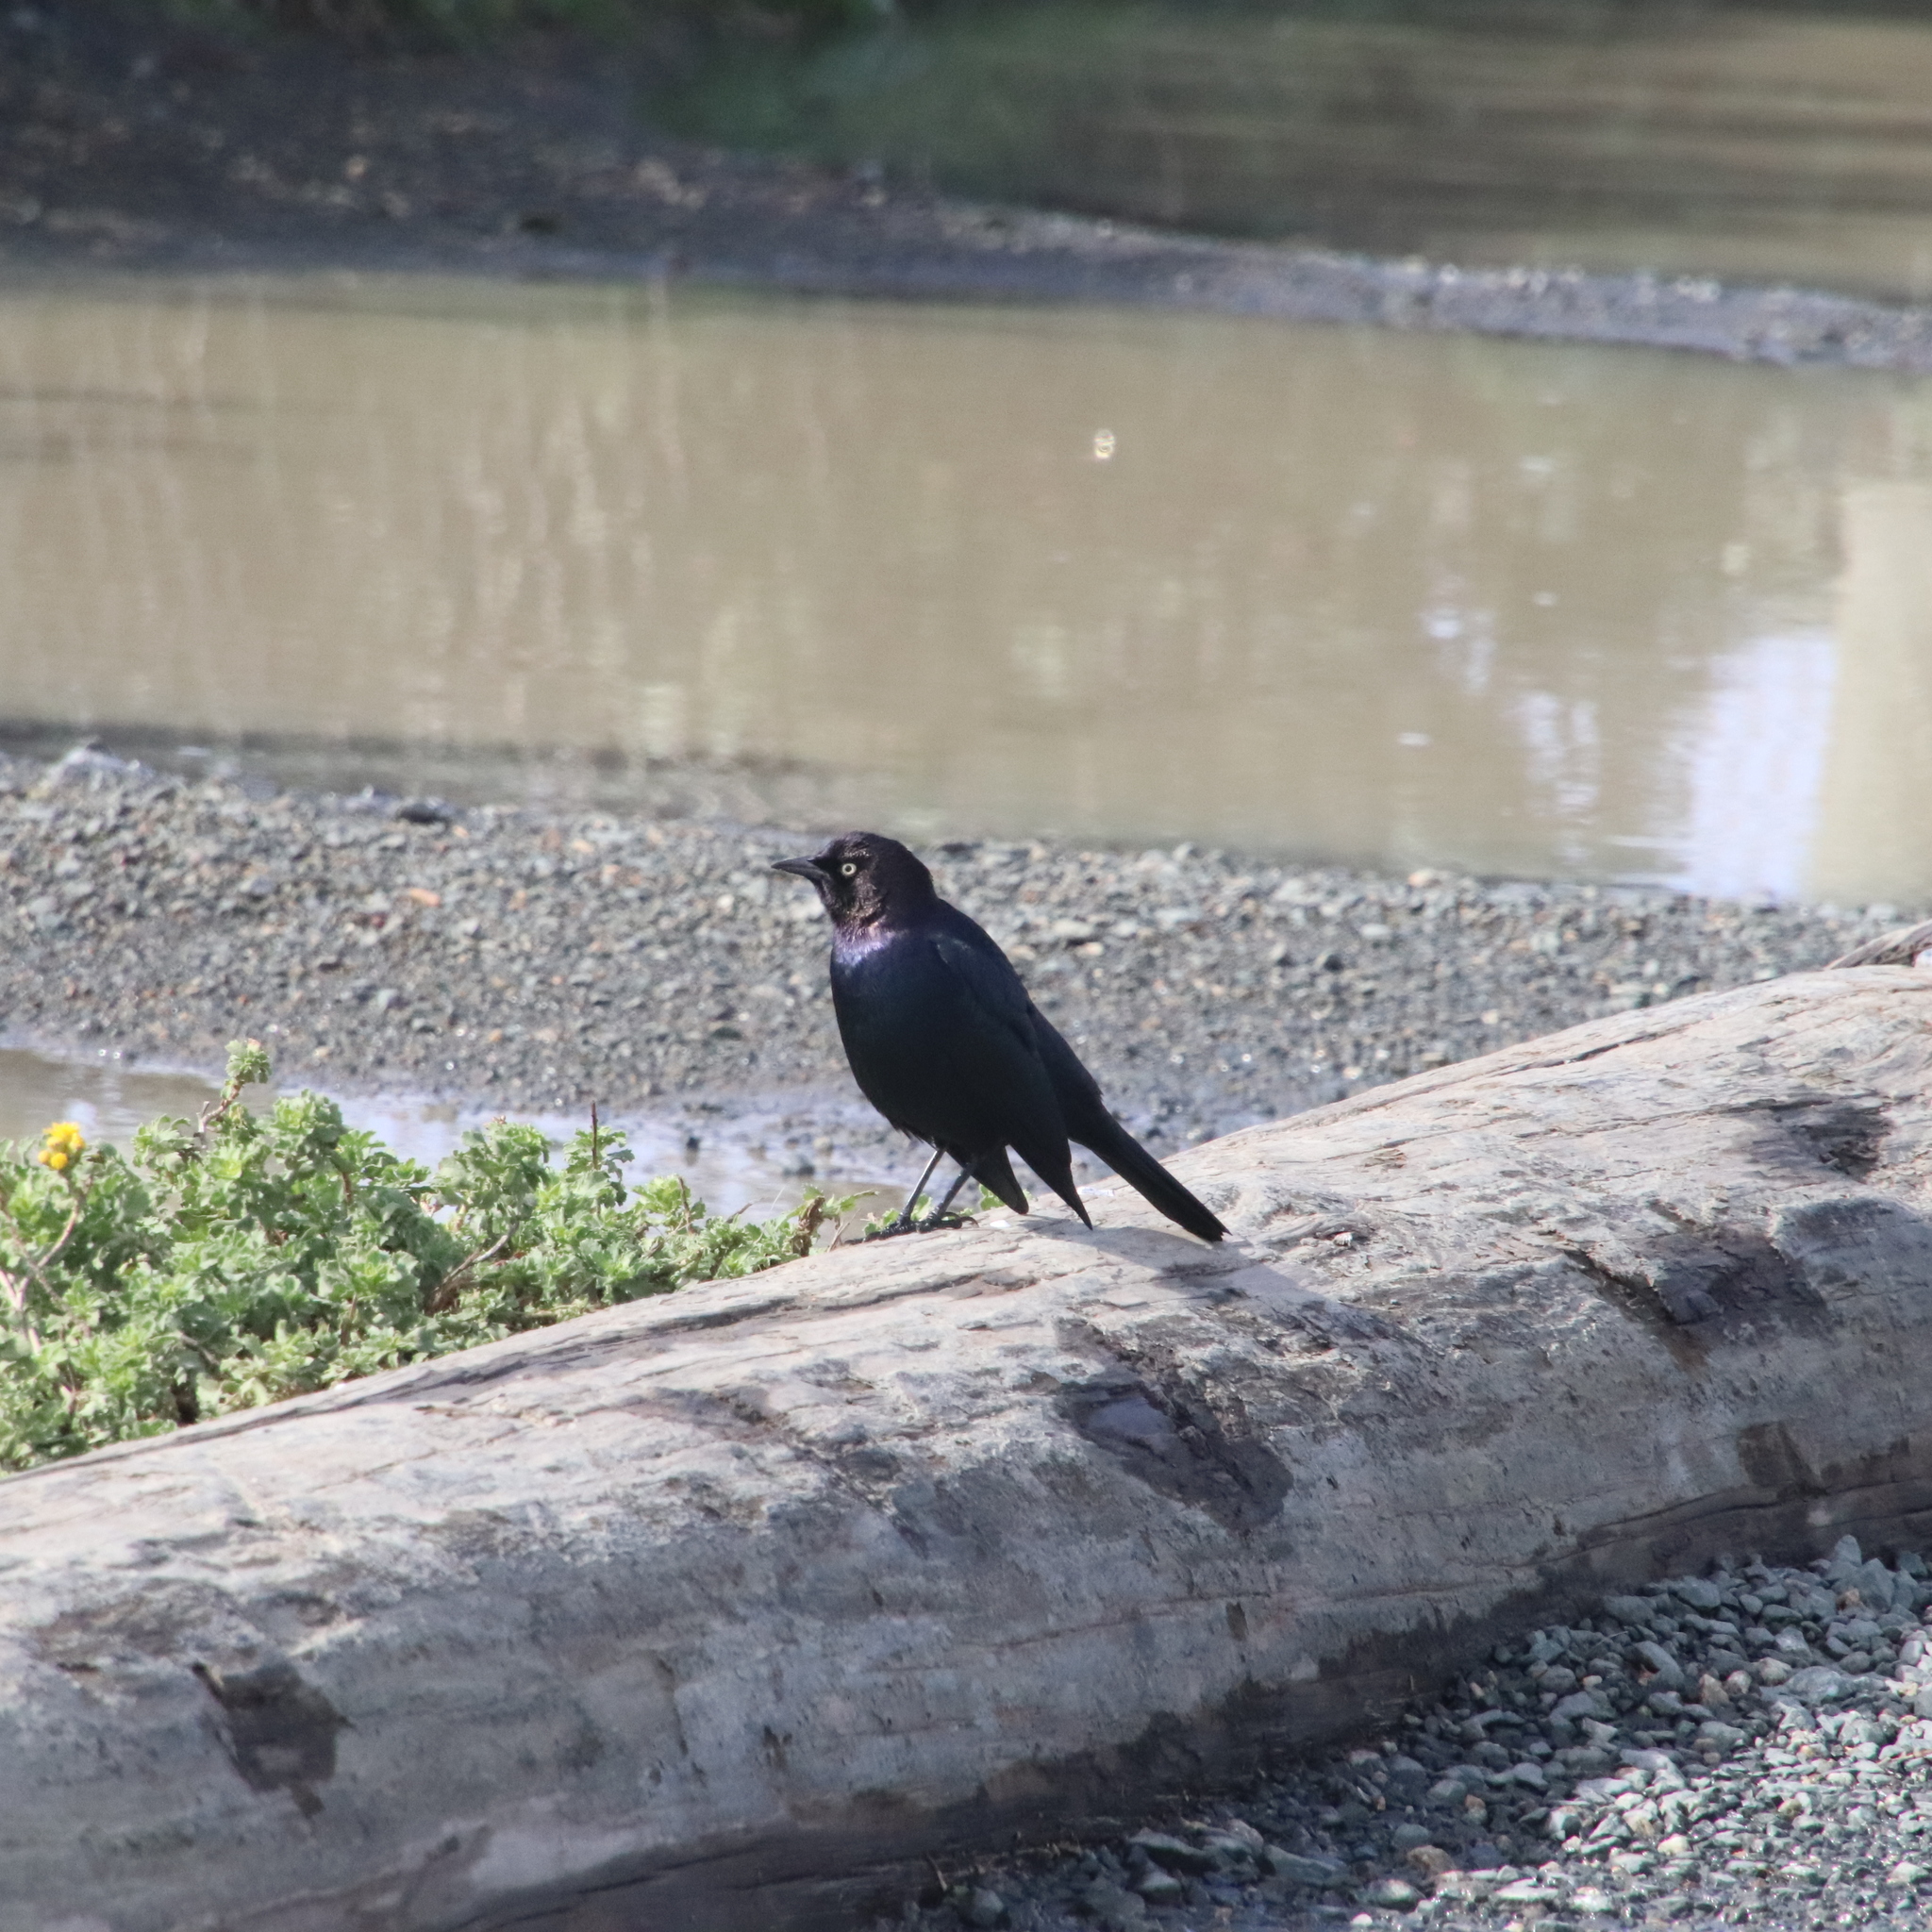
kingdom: Animalia
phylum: Chordata
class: Aves
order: Passeriformes
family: Icteridae
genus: Euphagus
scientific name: Euphagus cyanocephalus
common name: Brewer's blackbird
